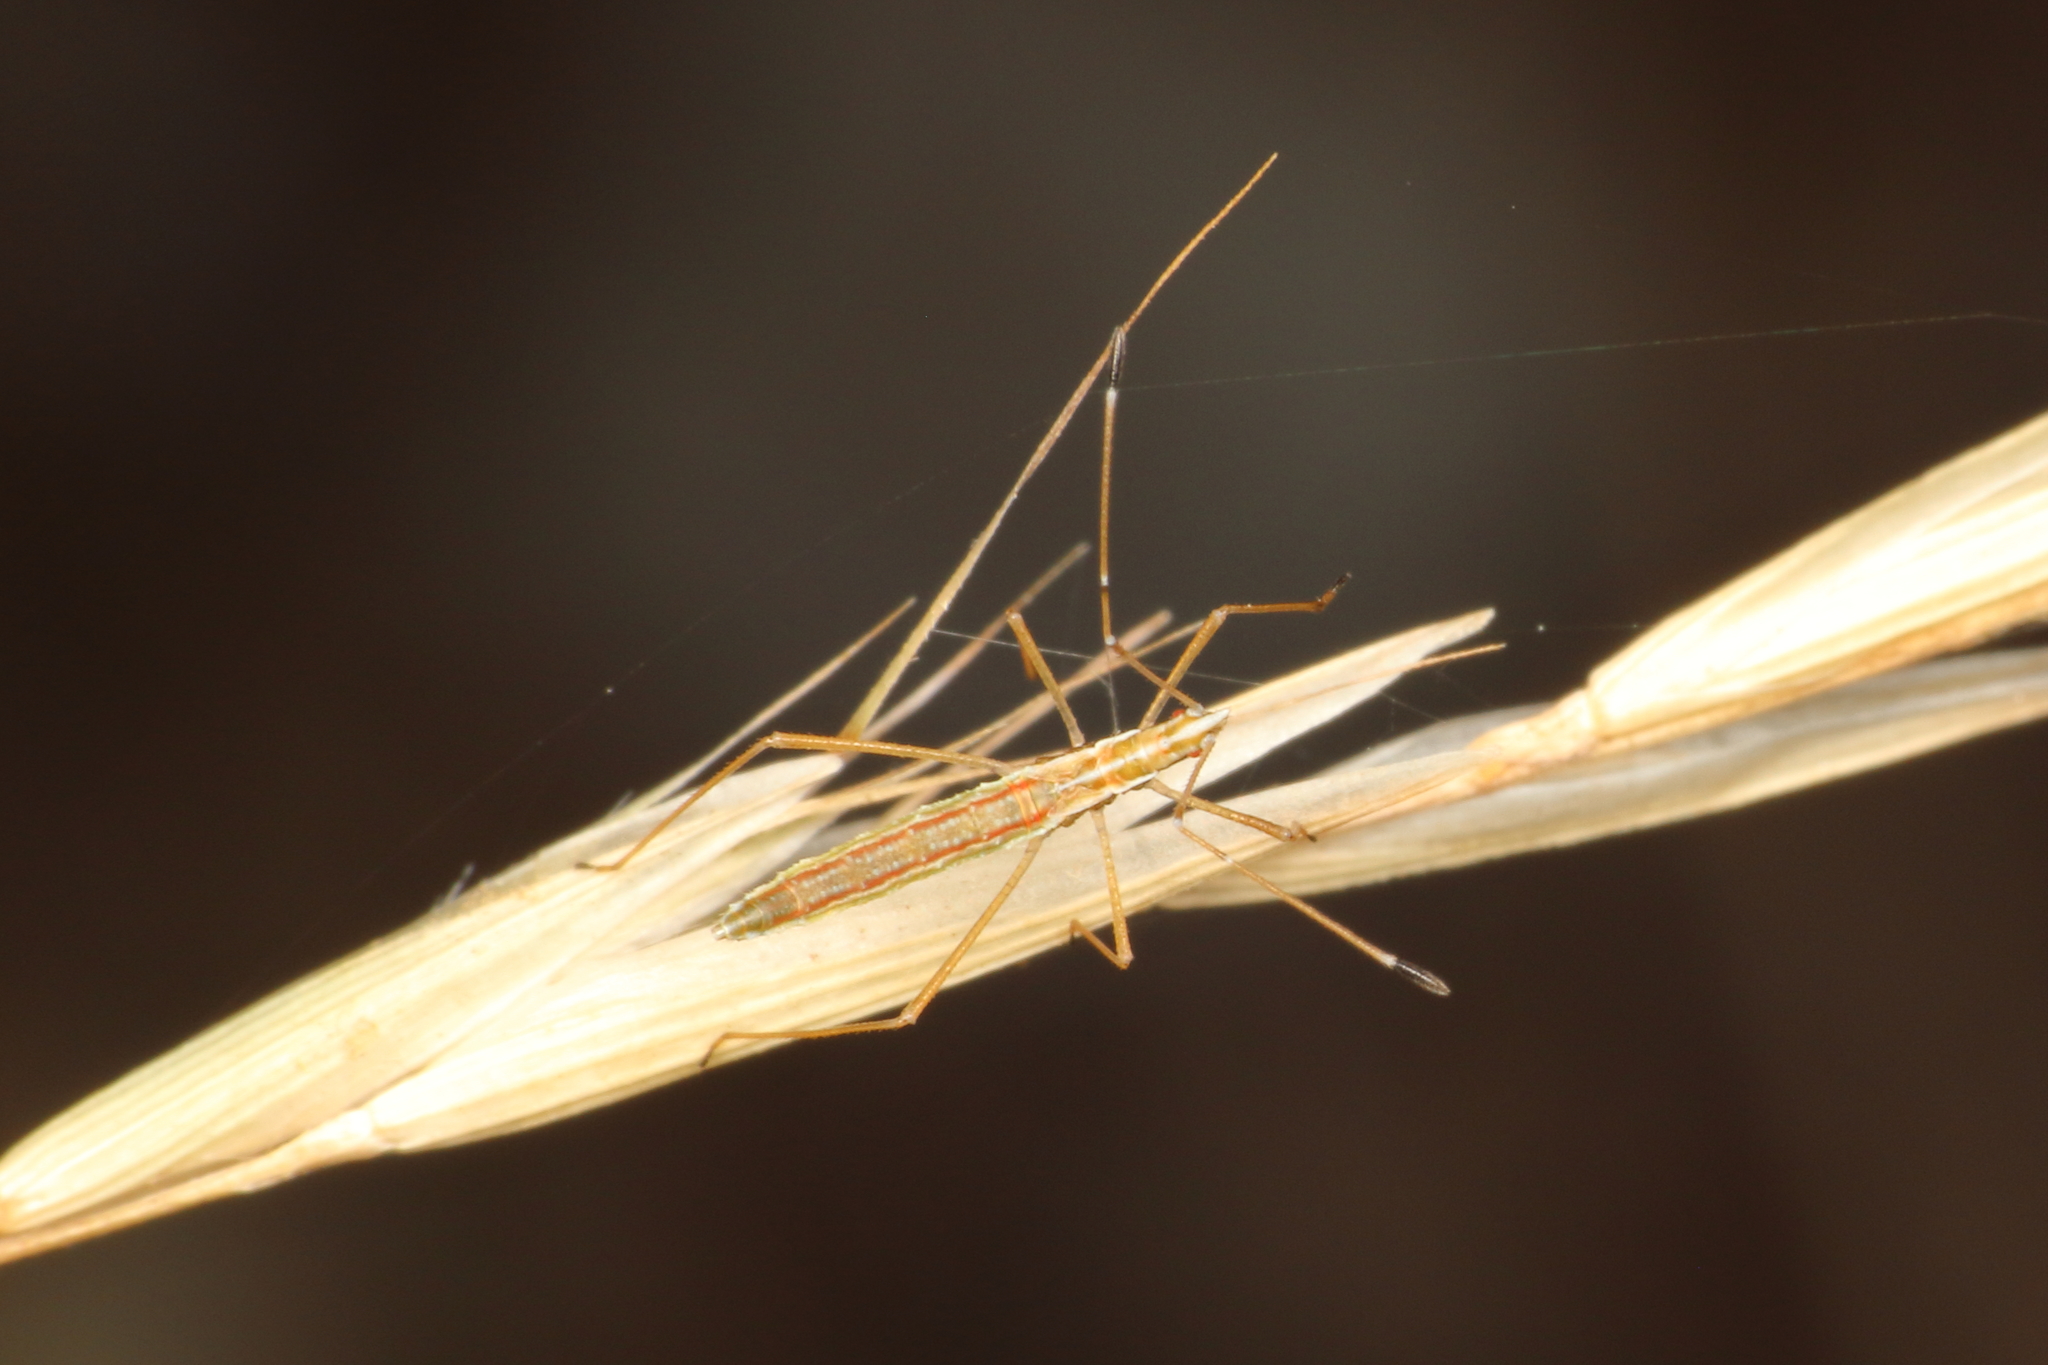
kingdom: Animalia
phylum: Arthropoda
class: Insecta
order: Hemiptera
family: Berytidae
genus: Bezu
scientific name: Bezu wakefieldi
